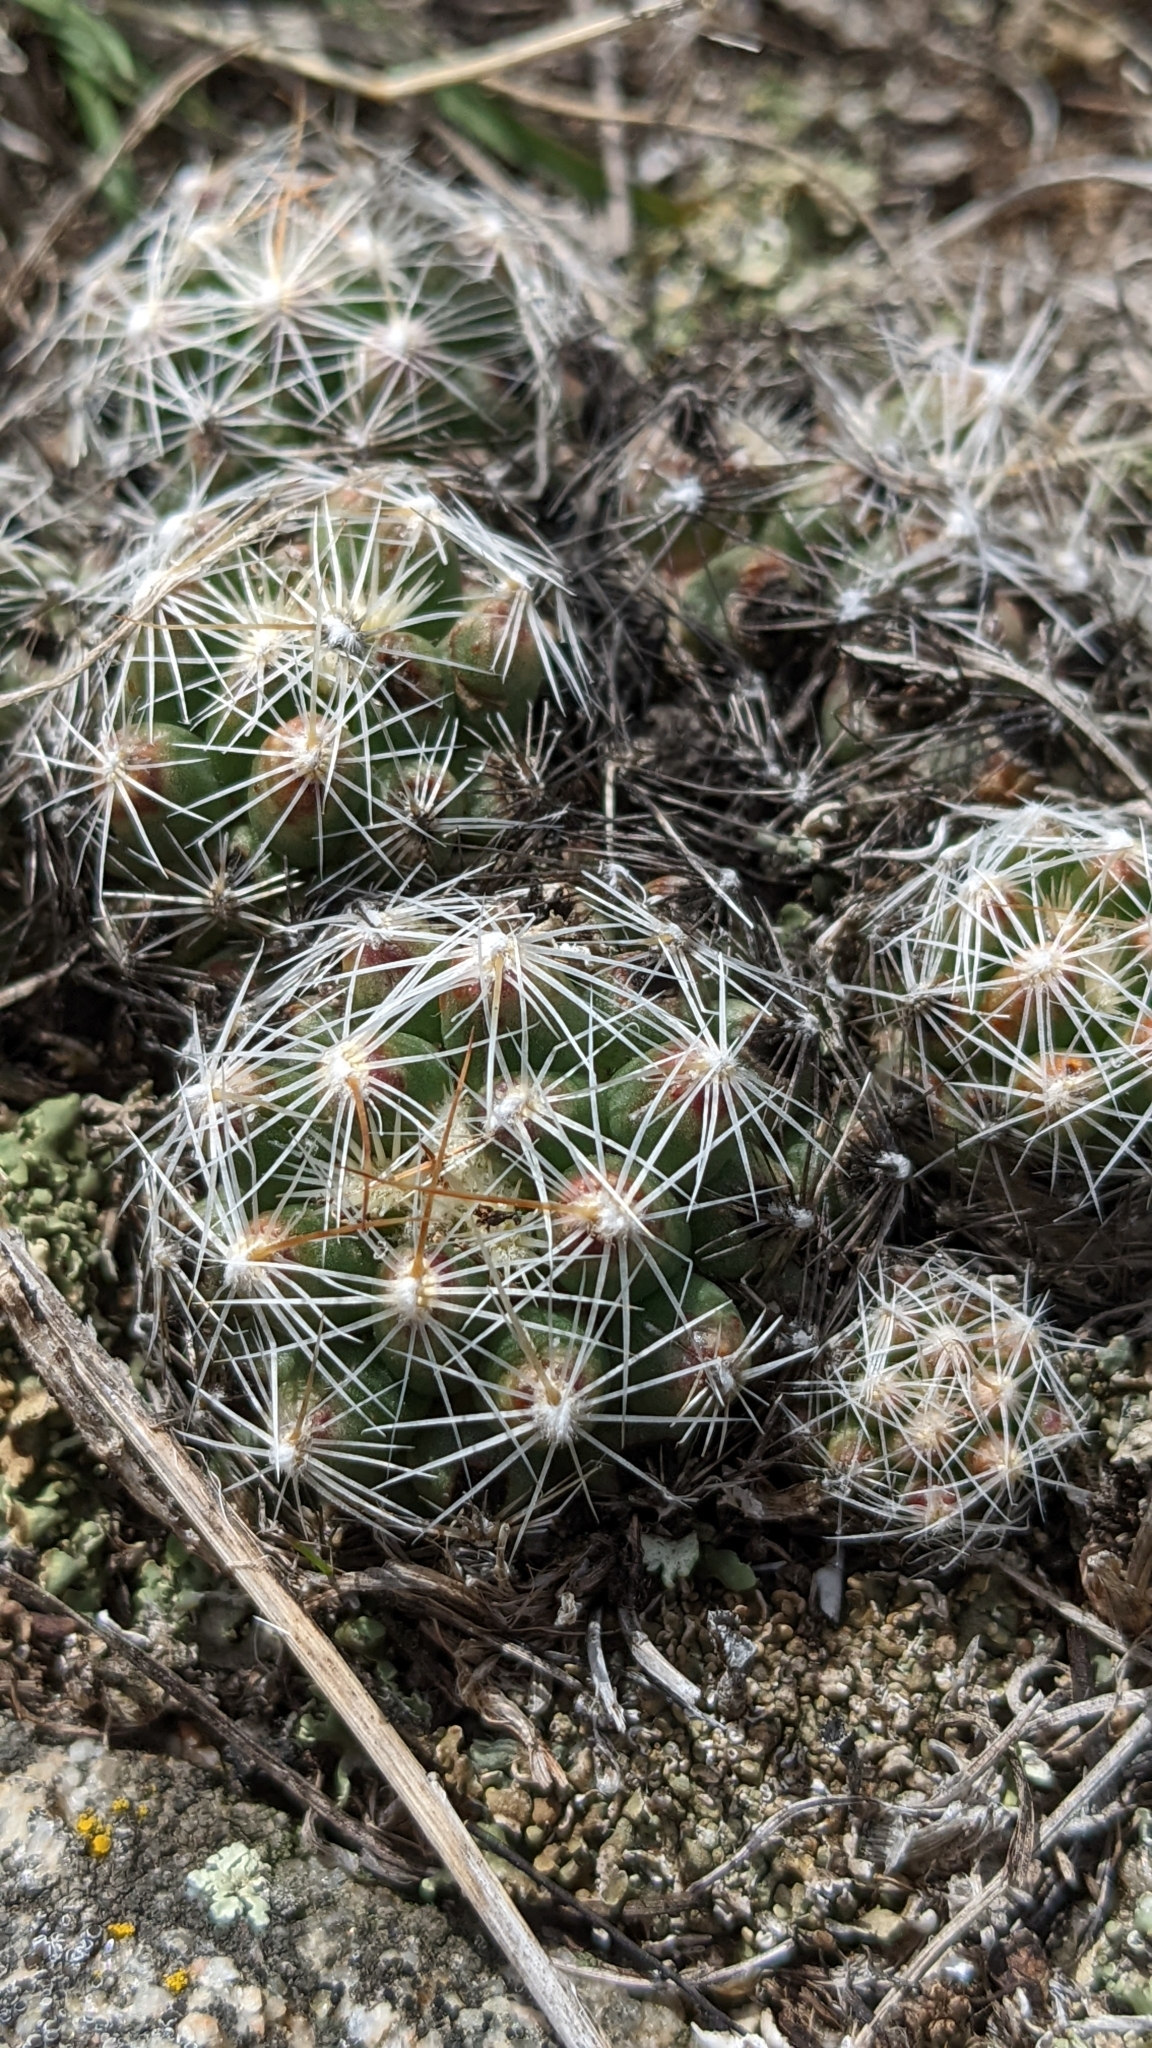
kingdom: Plantae
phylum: Tracheophyta
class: Magnoliopsida
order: Caryophyllales
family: Cactaceae
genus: Pelecyphora
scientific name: Pelecyphora vivipara
